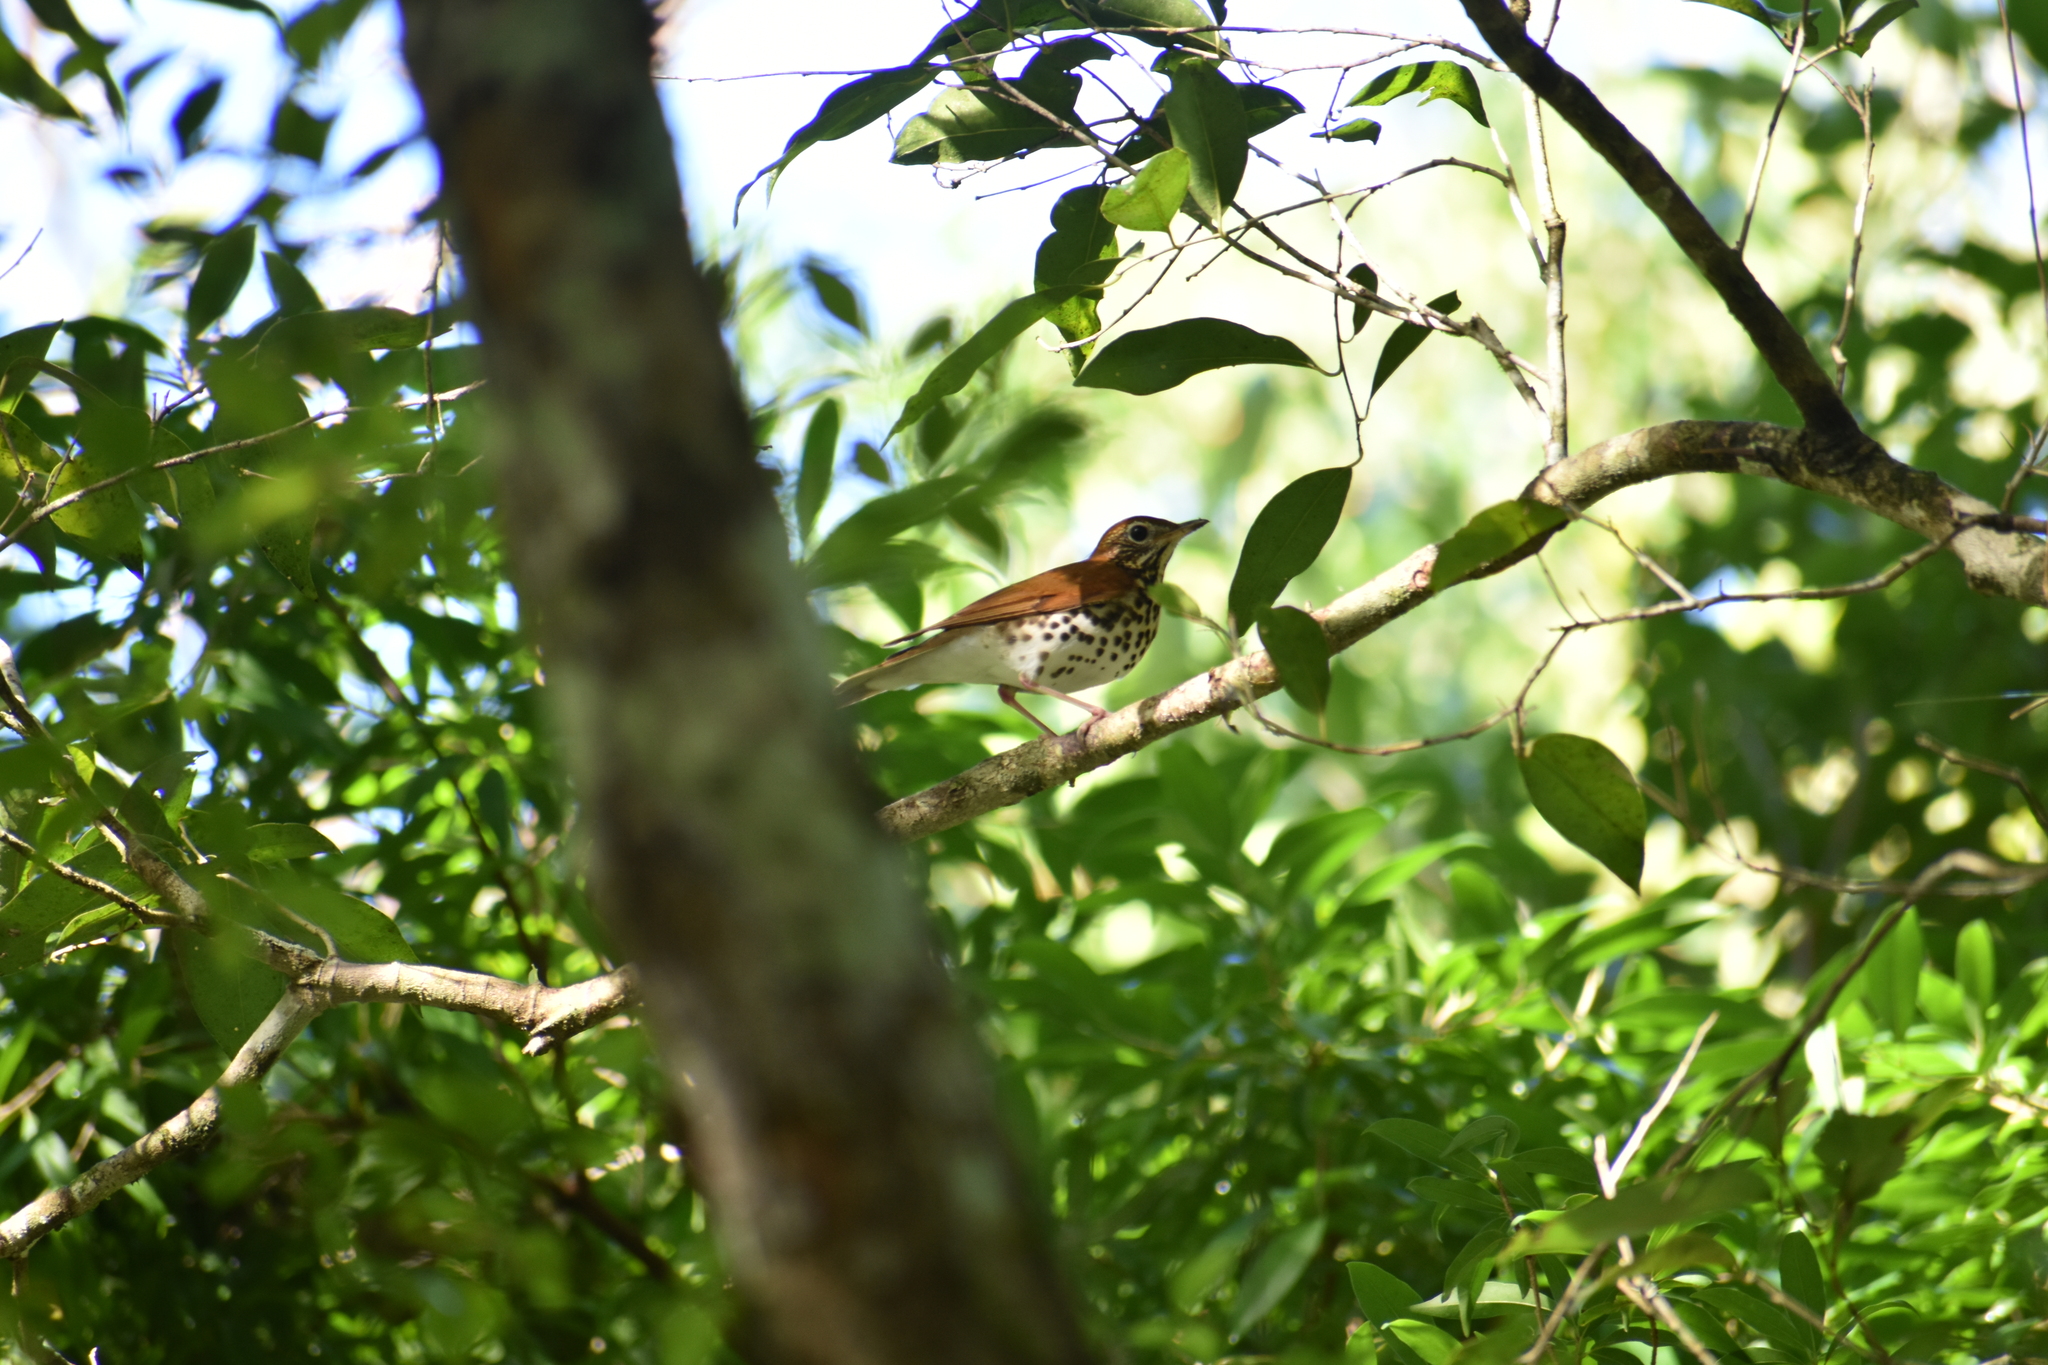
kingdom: Animalia
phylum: Chordata
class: Aves
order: Passeriformes
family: Turdidae
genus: Hylocichla
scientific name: Hylocichla mustelina
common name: Wood thrush
